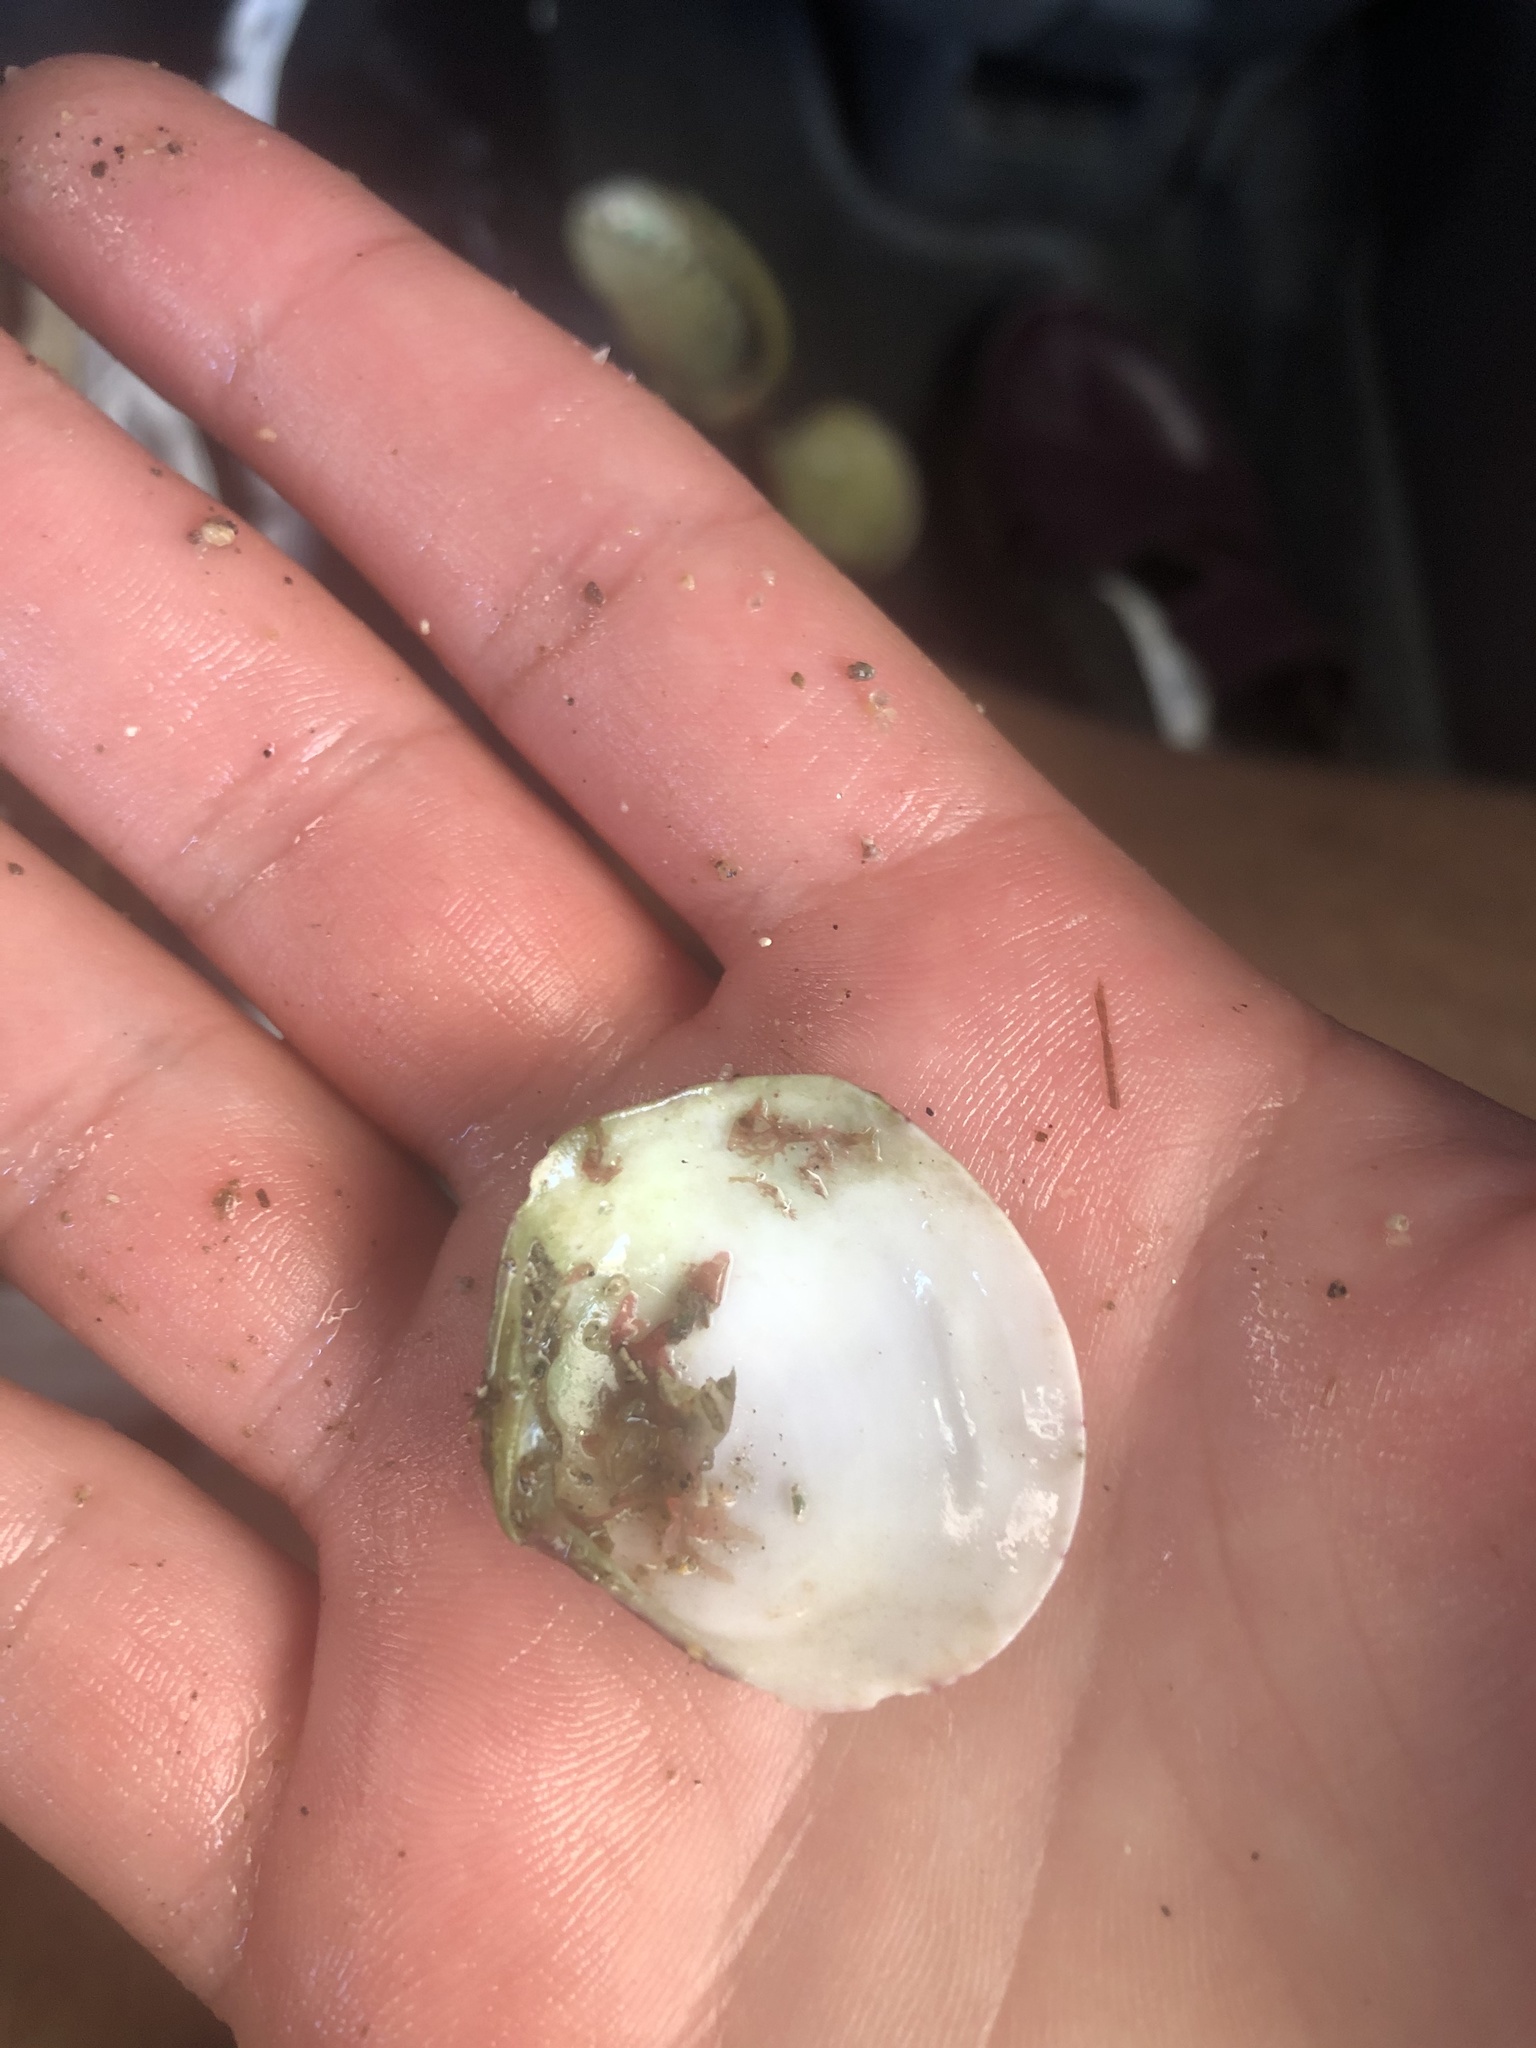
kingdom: Animalia
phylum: Mollusca
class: Bivalvia
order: Cardiida
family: Semelidae
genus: Semele
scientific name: Semele decisa
